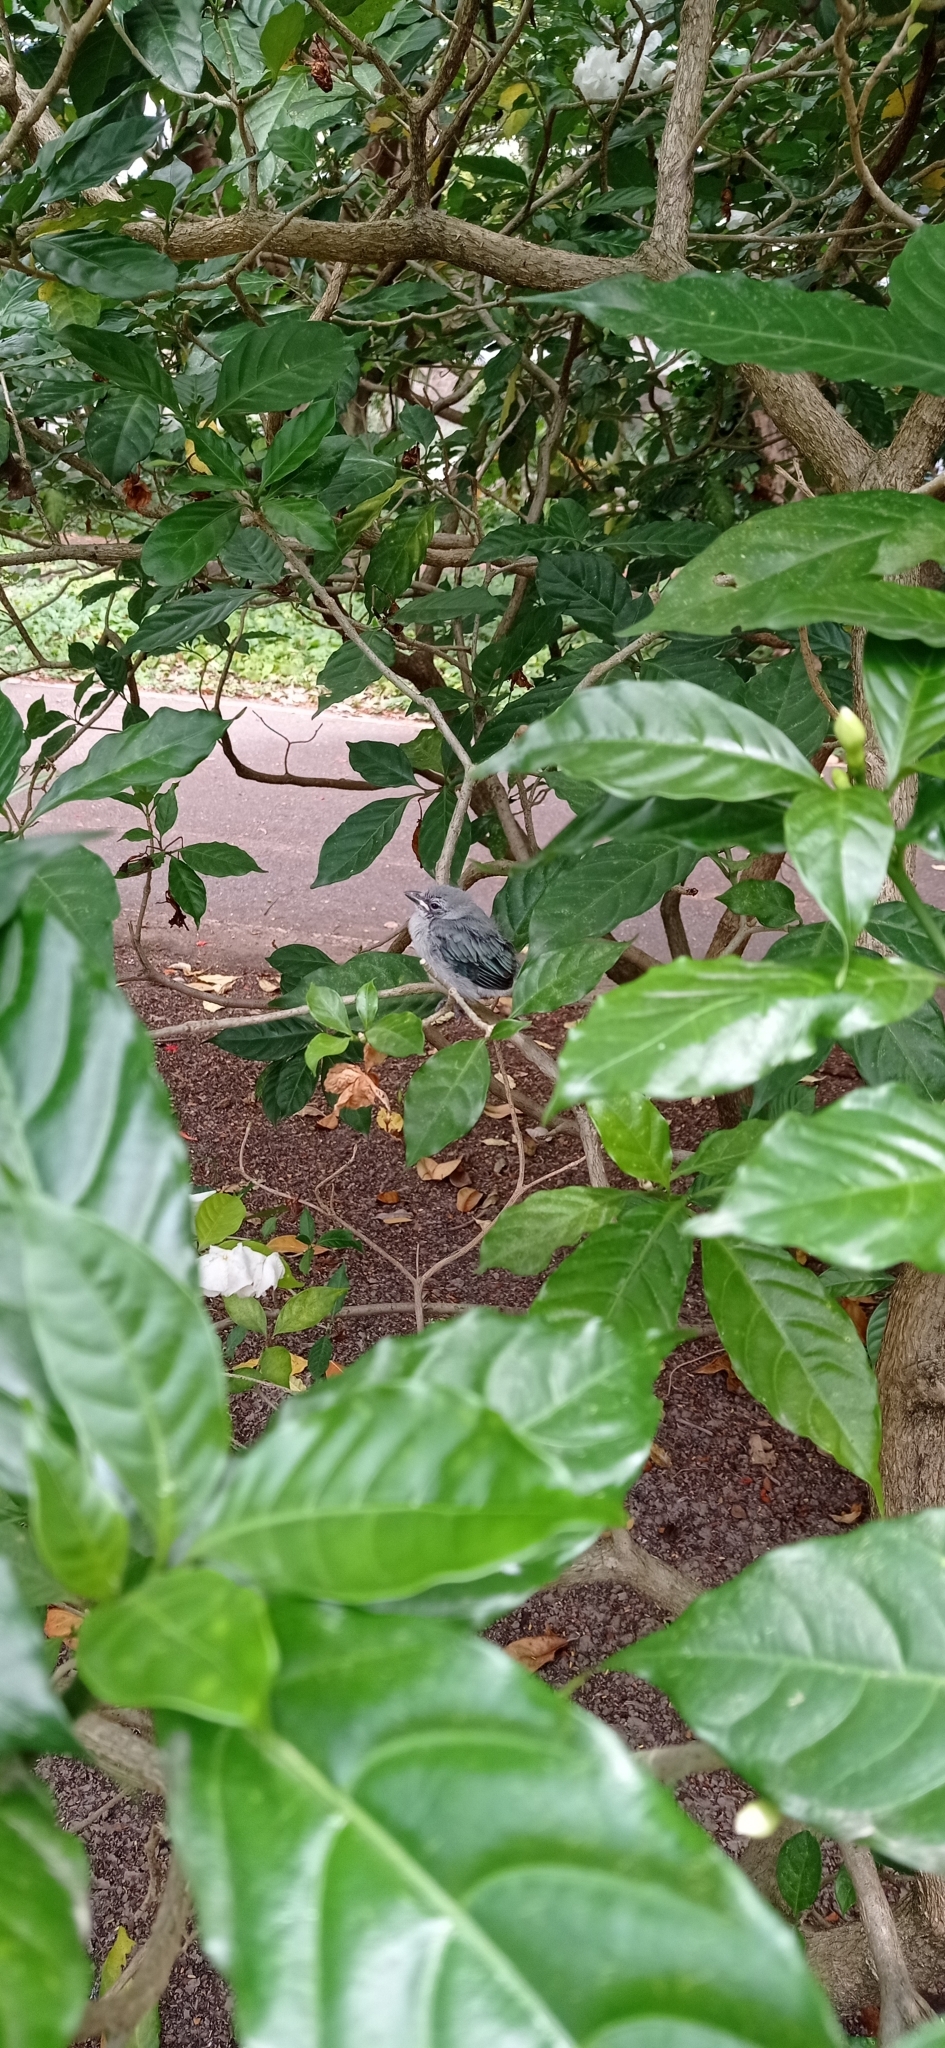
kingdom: Animalia
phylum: Chordata
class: Aves
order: Passeriformes
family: Thraupidae
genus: Thraupis
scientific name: Thraupis sayaca
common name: Sayaca tanager
